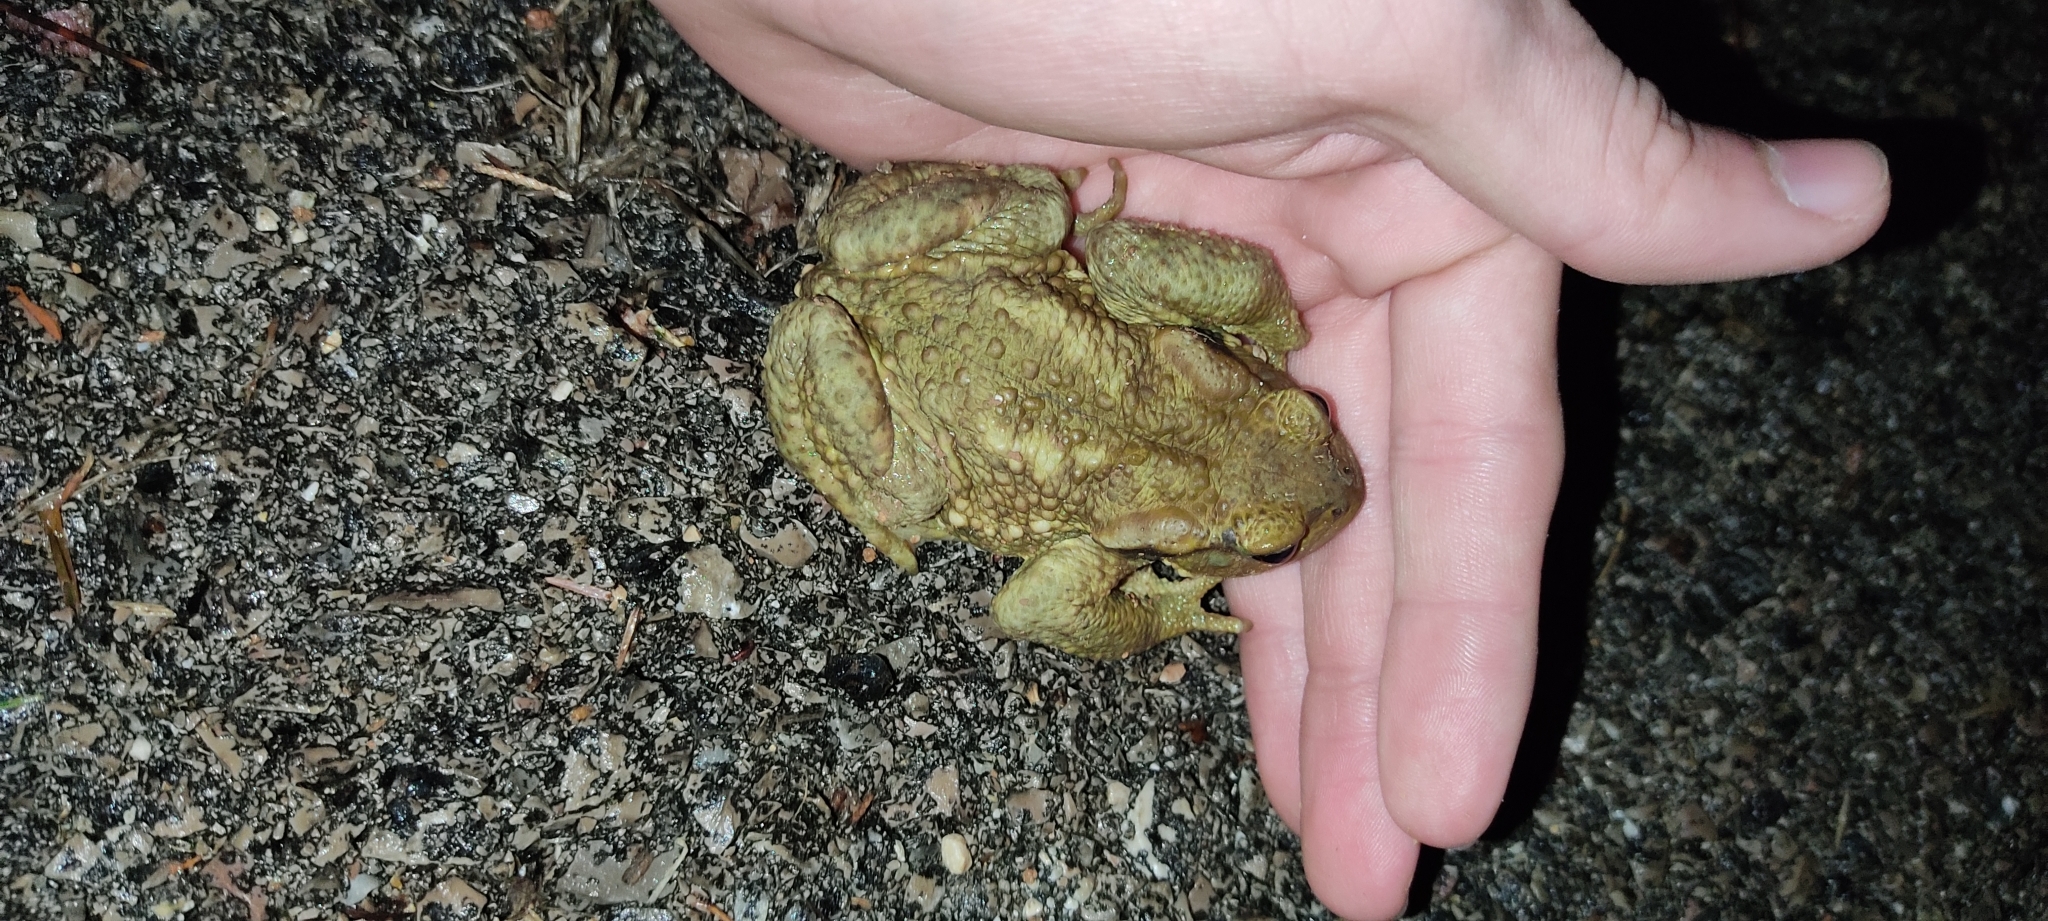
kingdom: Animalia
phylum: Chordata
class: Amphibia
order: Anura
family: Bufonidae
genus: Bufo
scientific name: Bufo spinosus
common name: Western common toad
